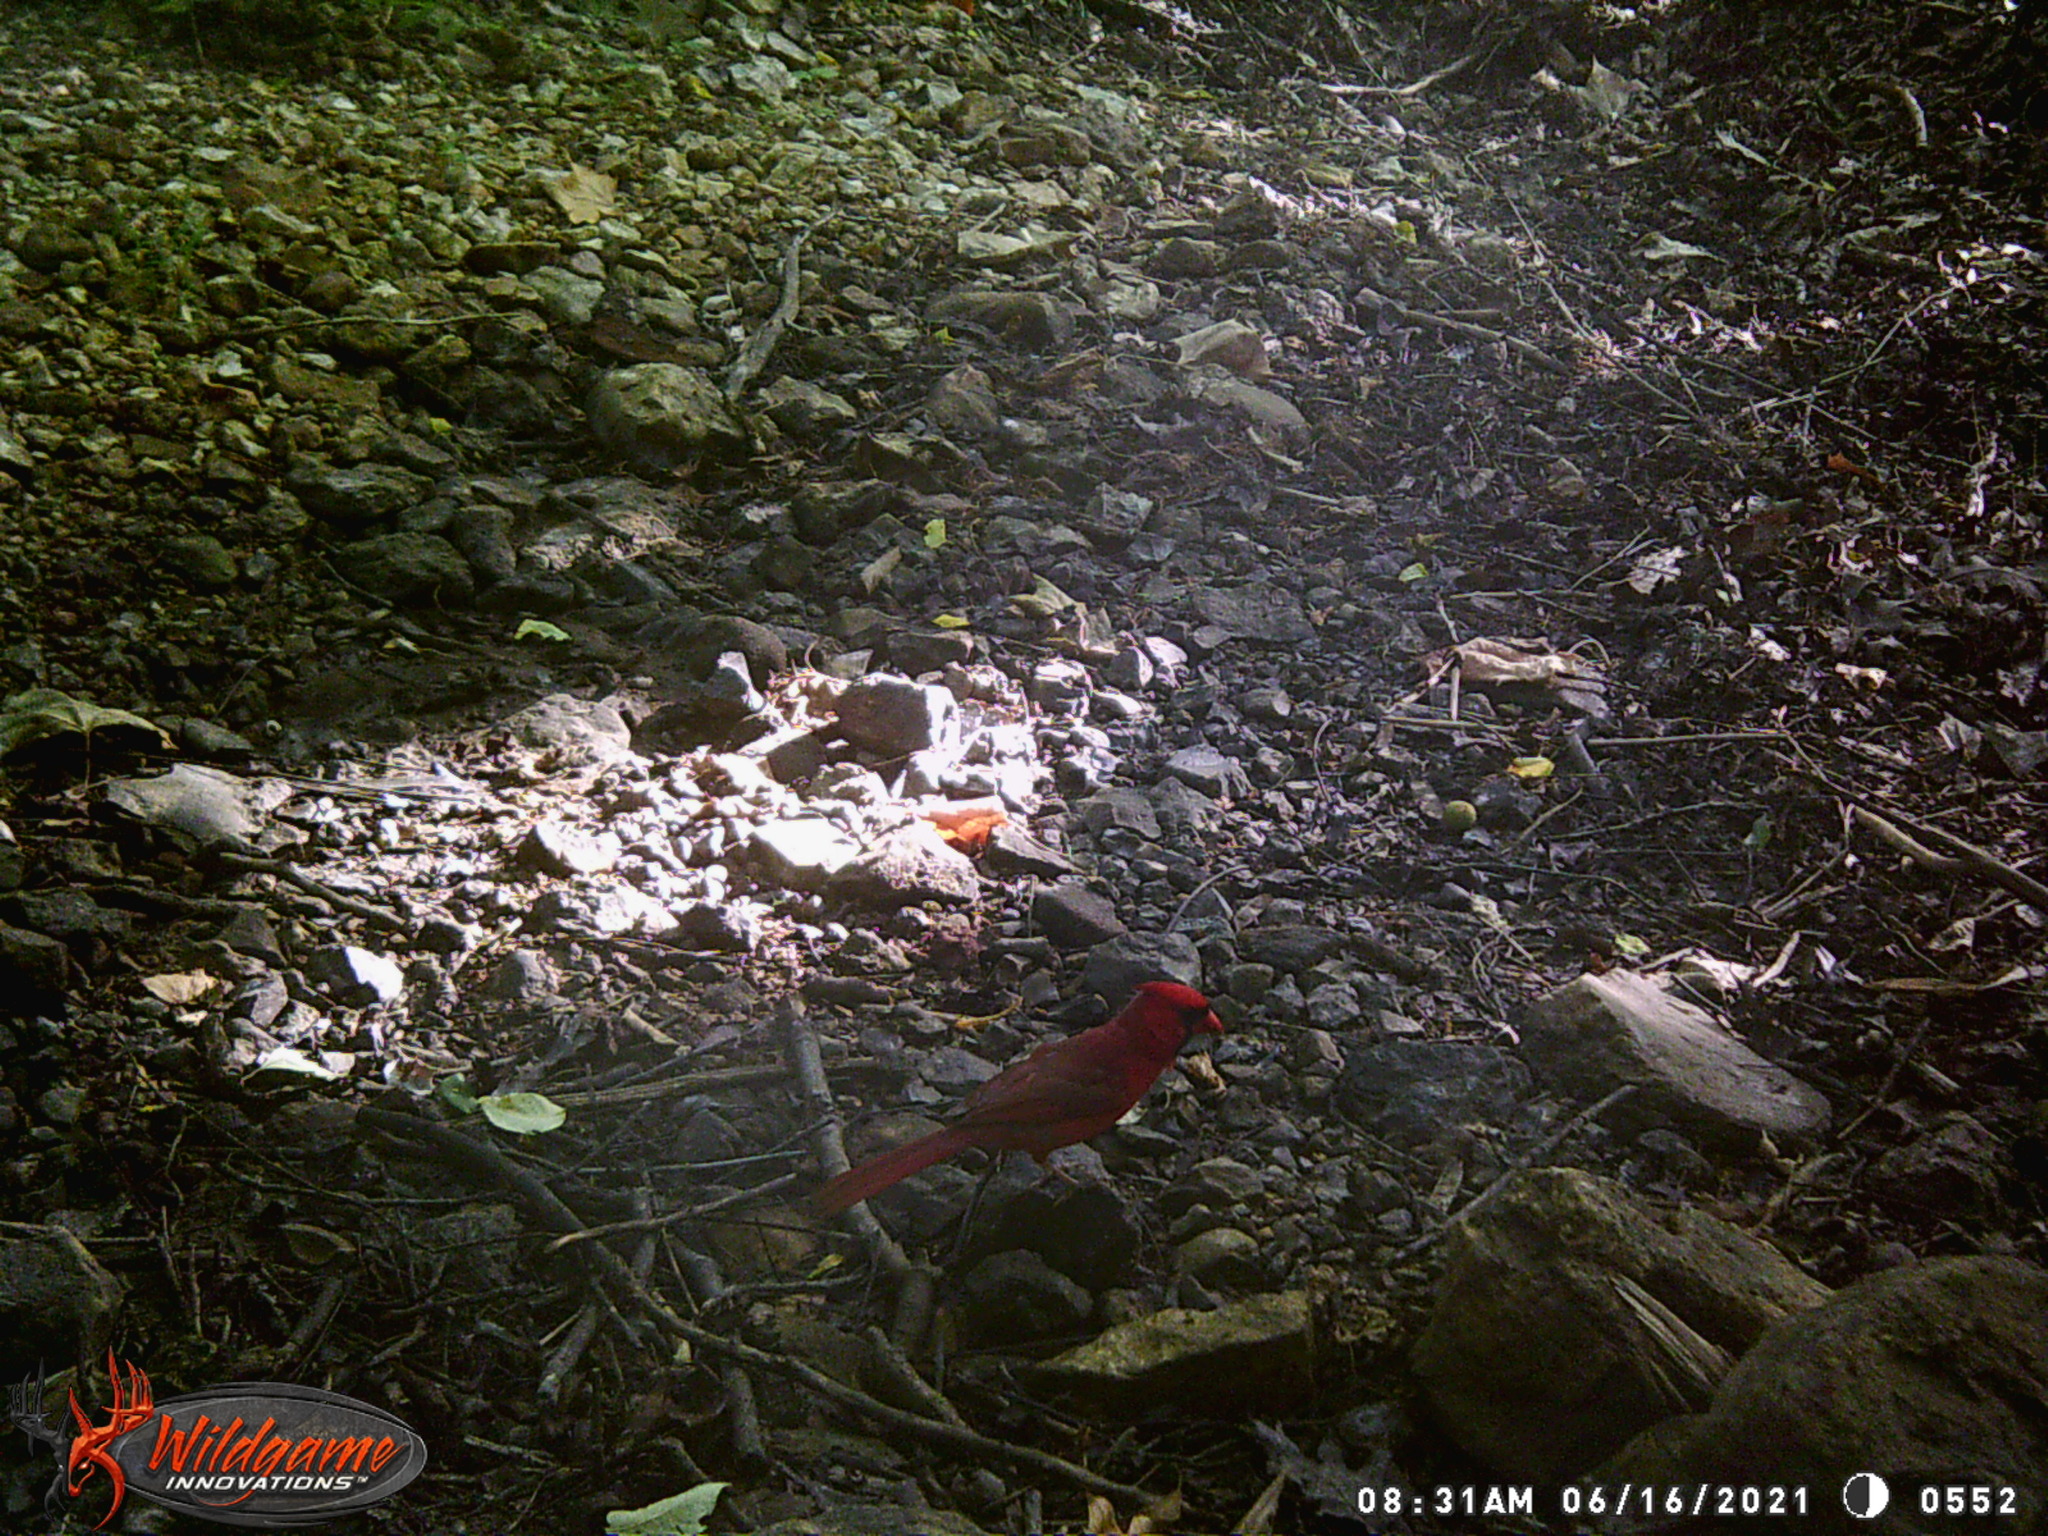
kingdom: Animalia
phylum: Chordata
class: Aves
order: Passeriformes
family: Cardinalidae
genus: Cardinalis
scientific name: Cardinalis cardinalis
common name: Northern cardinal
